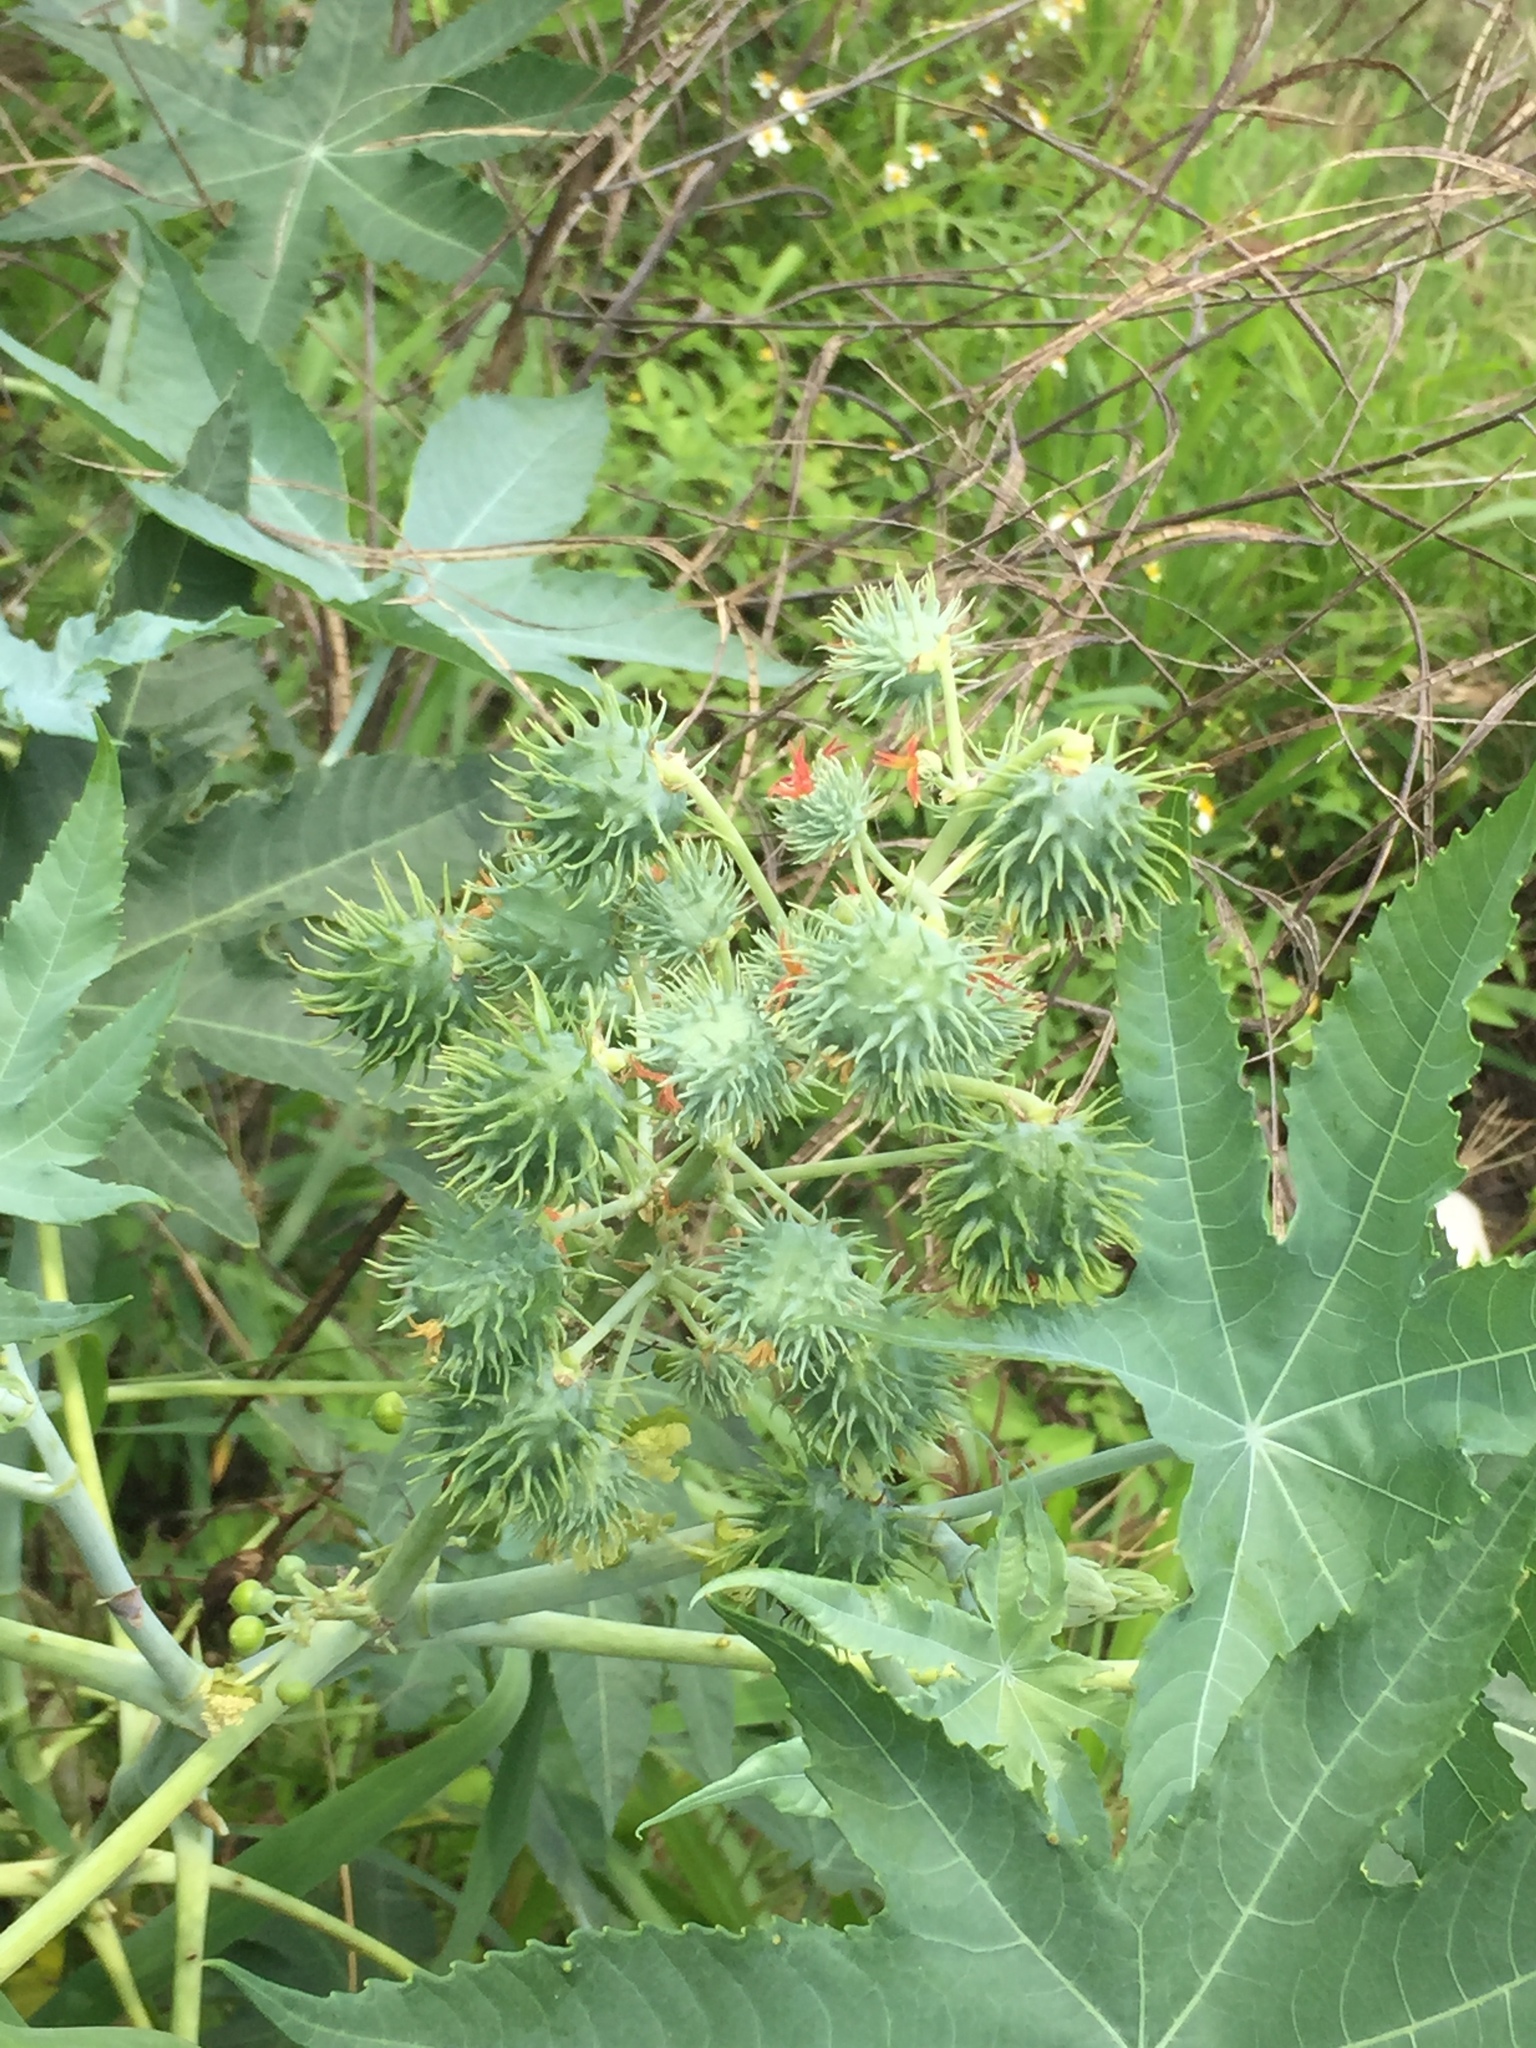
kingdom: Plantae
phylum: Tracheophyta
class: Magnoliopsida
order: Malpighiales
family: Euphorbiaceae
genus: Ricinus
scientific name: Ricinus communis
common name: Castor-oil-plant
